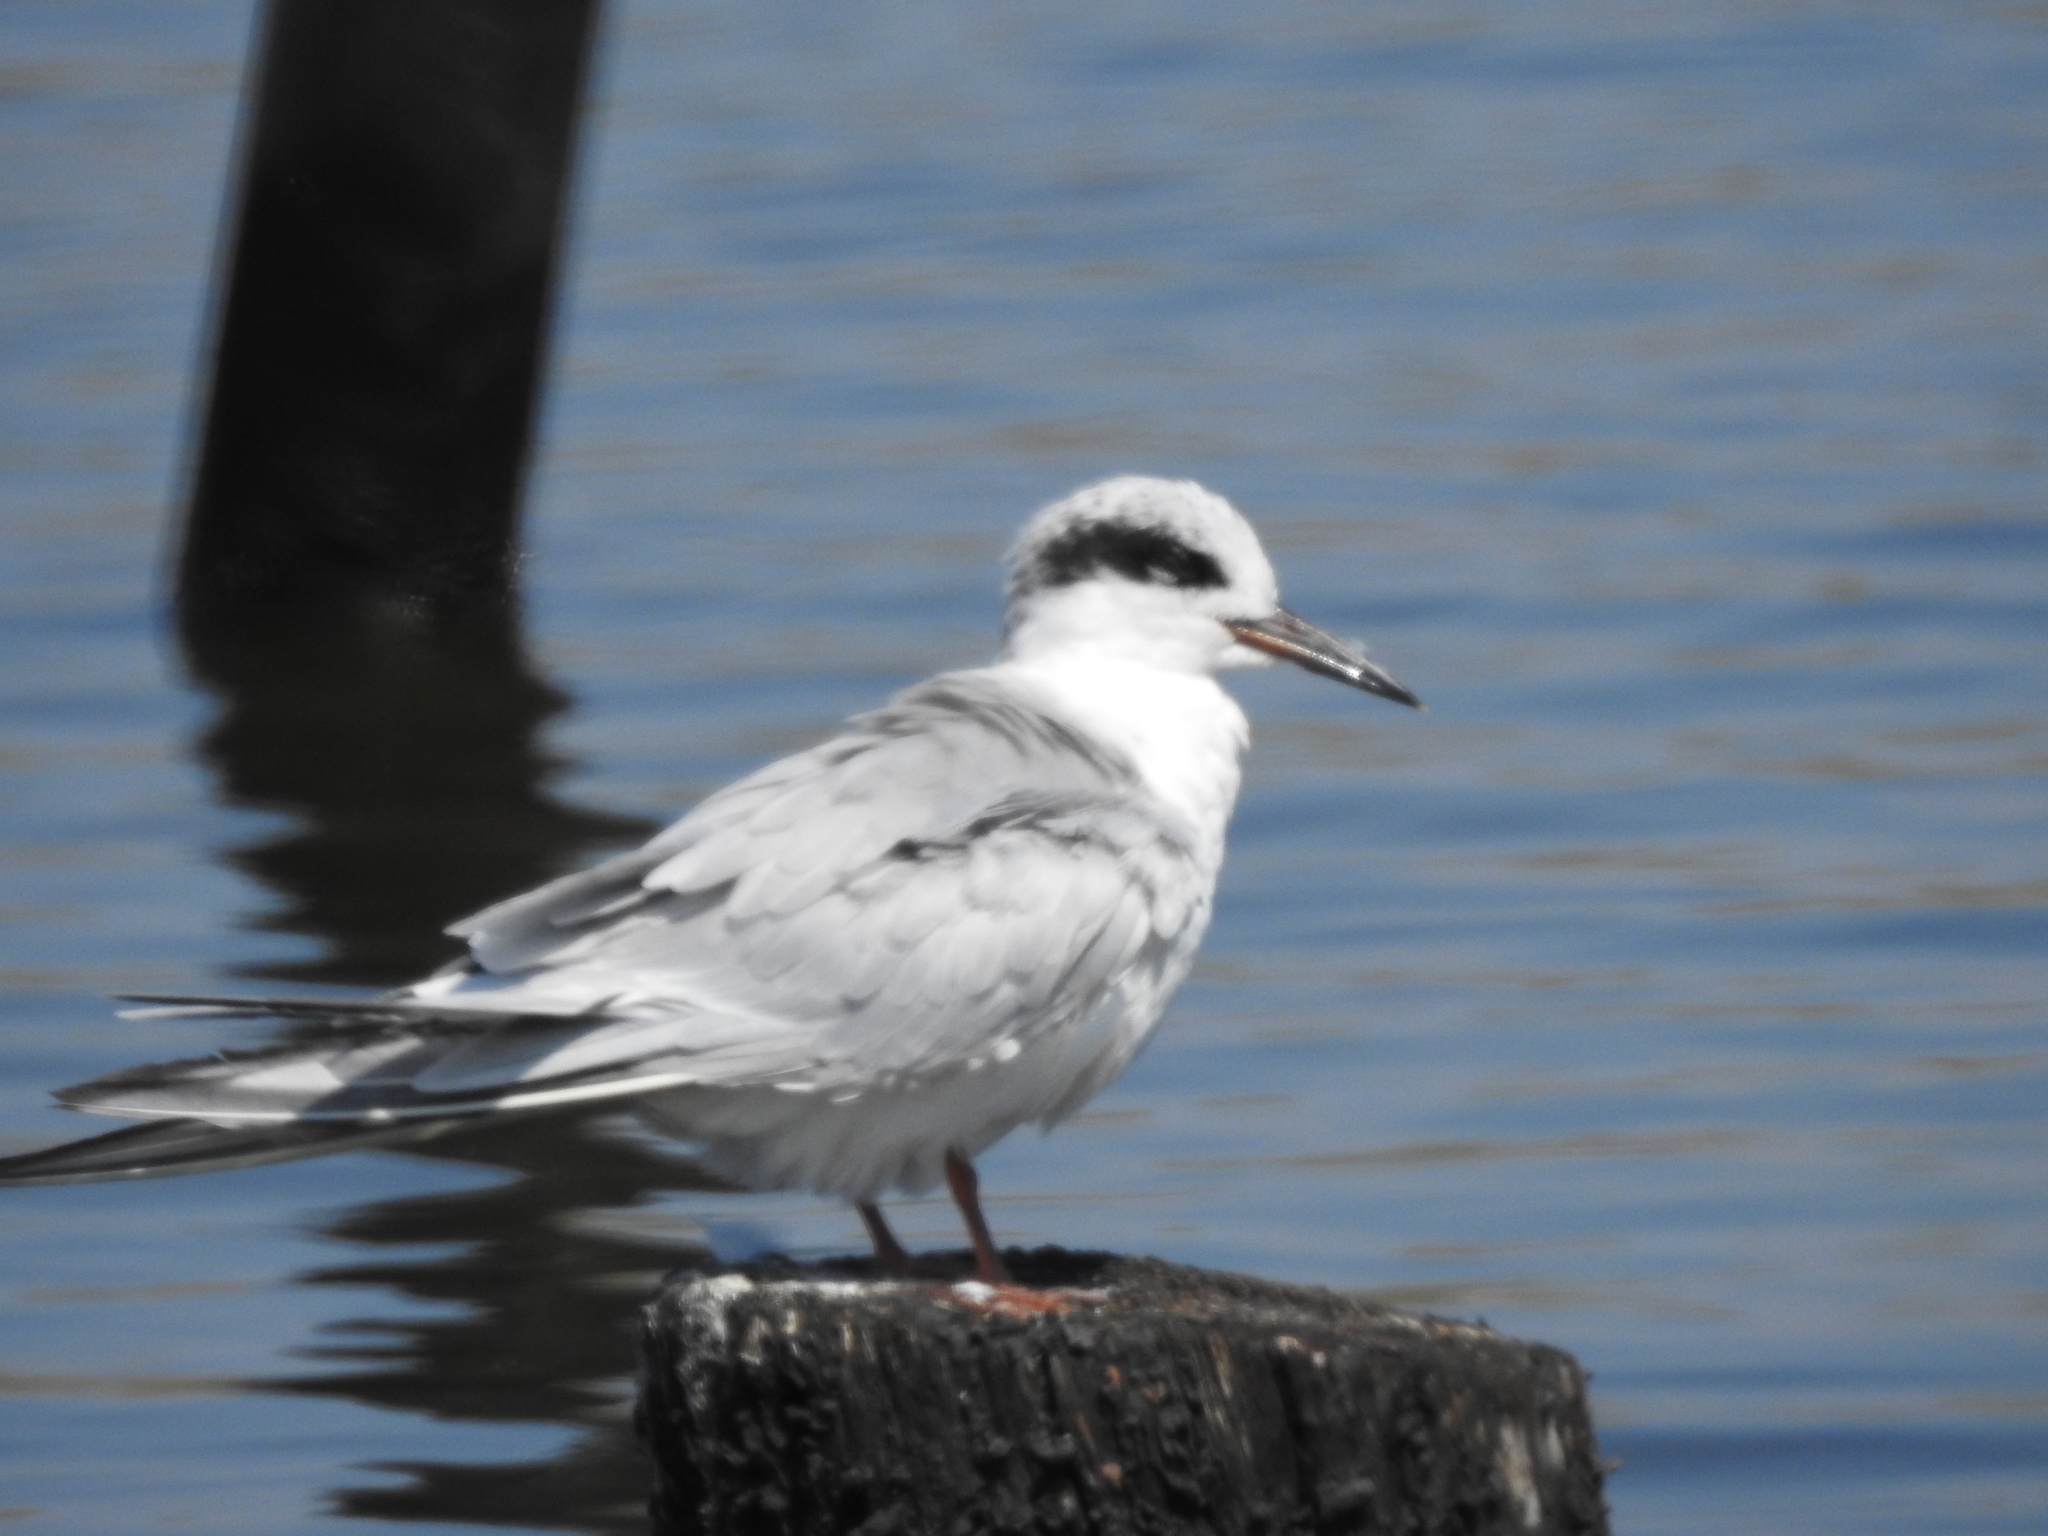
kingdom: Animalia
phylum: Chordata
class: Aves
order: Charadriiformes
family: Laridae
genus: Sterna
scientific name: Sterna forsteri
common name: Forster's tern
